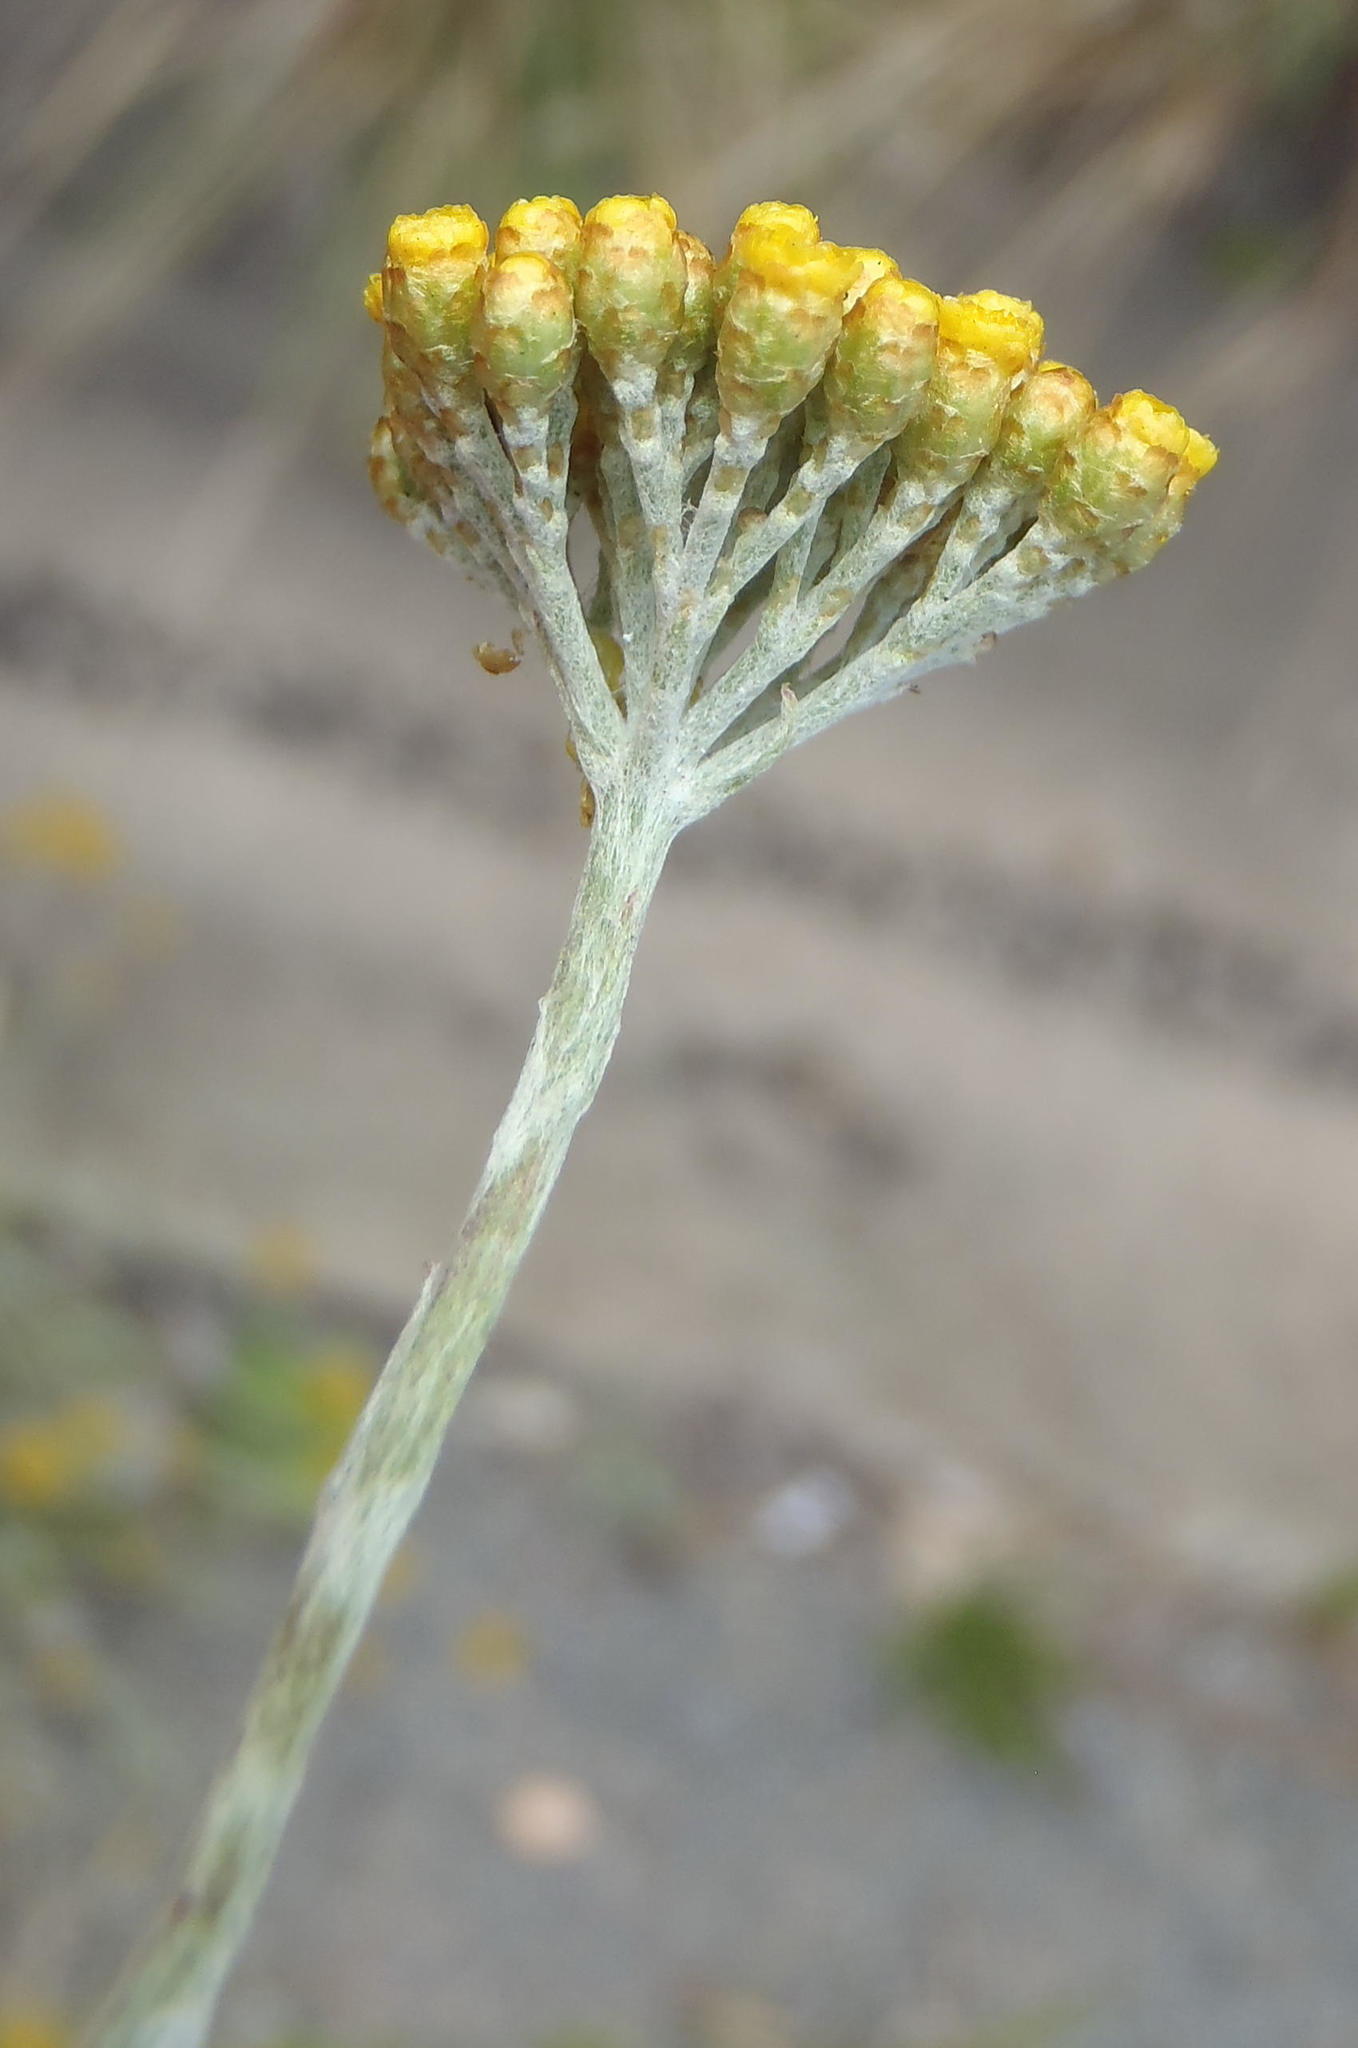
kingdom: Plantae
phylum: Tracheophyta
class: Magnoliopsida
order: Asterales
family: Asteraceae
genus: Helichrysum
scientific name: Helichrysum cymosum
